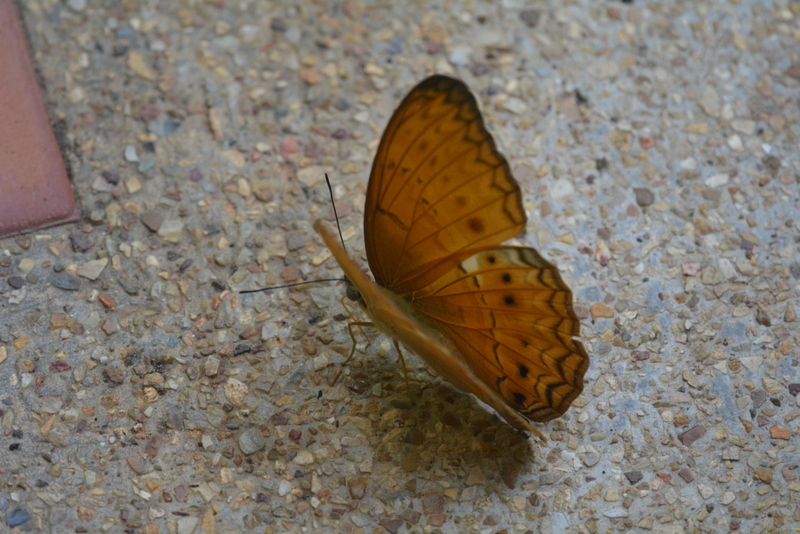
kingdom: Animalia
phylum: Arthropoda
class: Insecta
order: Lepidoptera
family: Nymphalidae
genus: Cirrochroa
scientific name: Cirrochroa tyche
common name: Common yeoman
